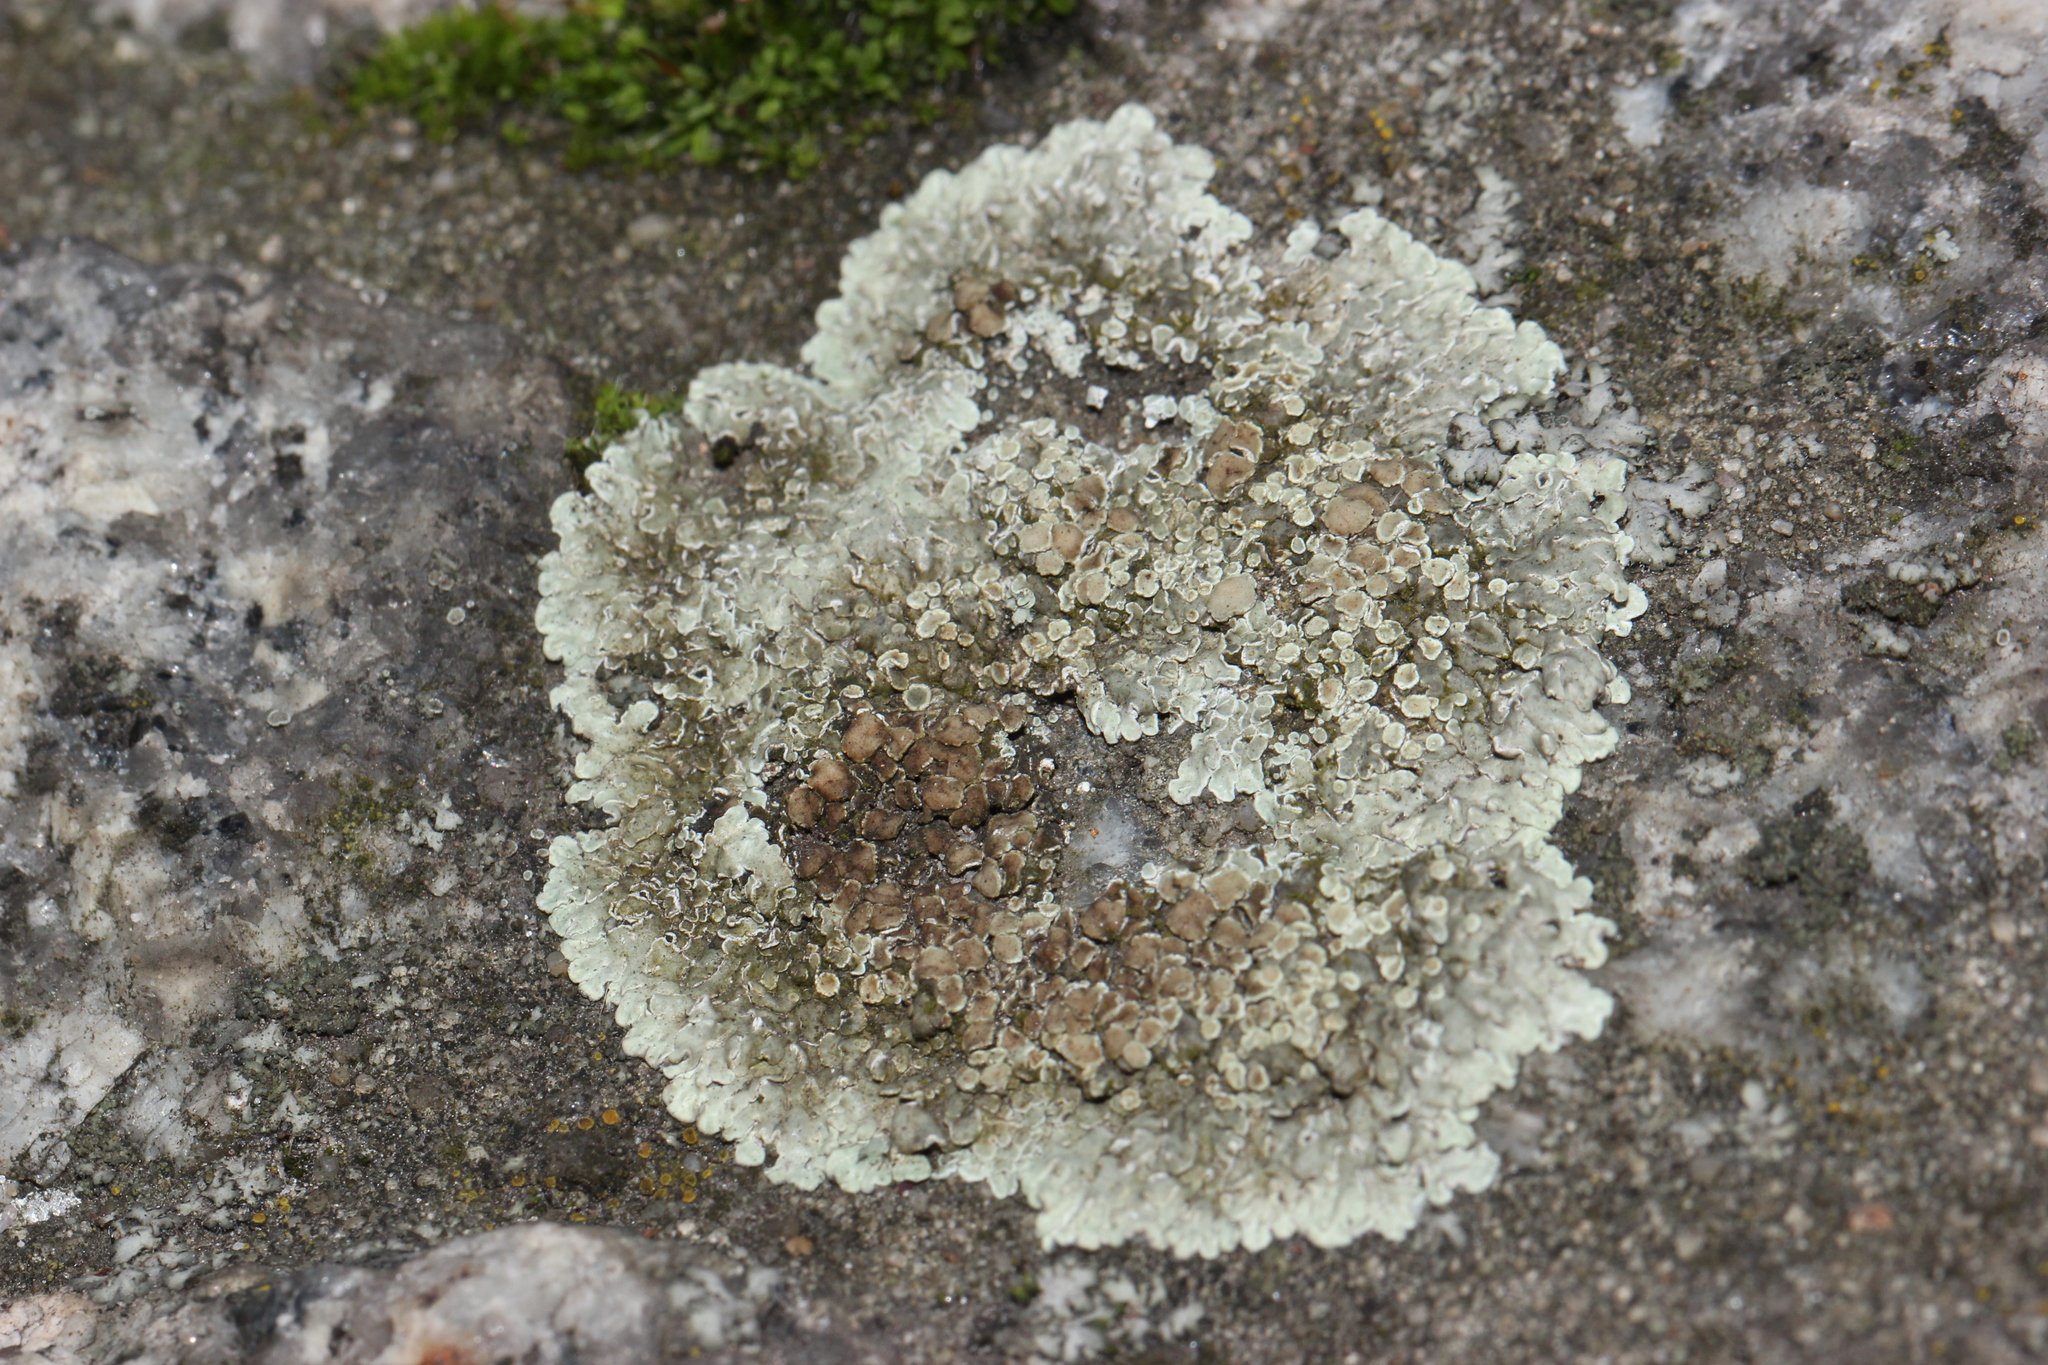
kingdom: Fungi
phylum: Ascomycota
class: Lecanoromycetes
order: Lecanorales
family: Lecanoraceae
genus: Protoparmeliopsis
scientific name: Protoparmeliopsis muralis
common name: Stonewall rim lichen
